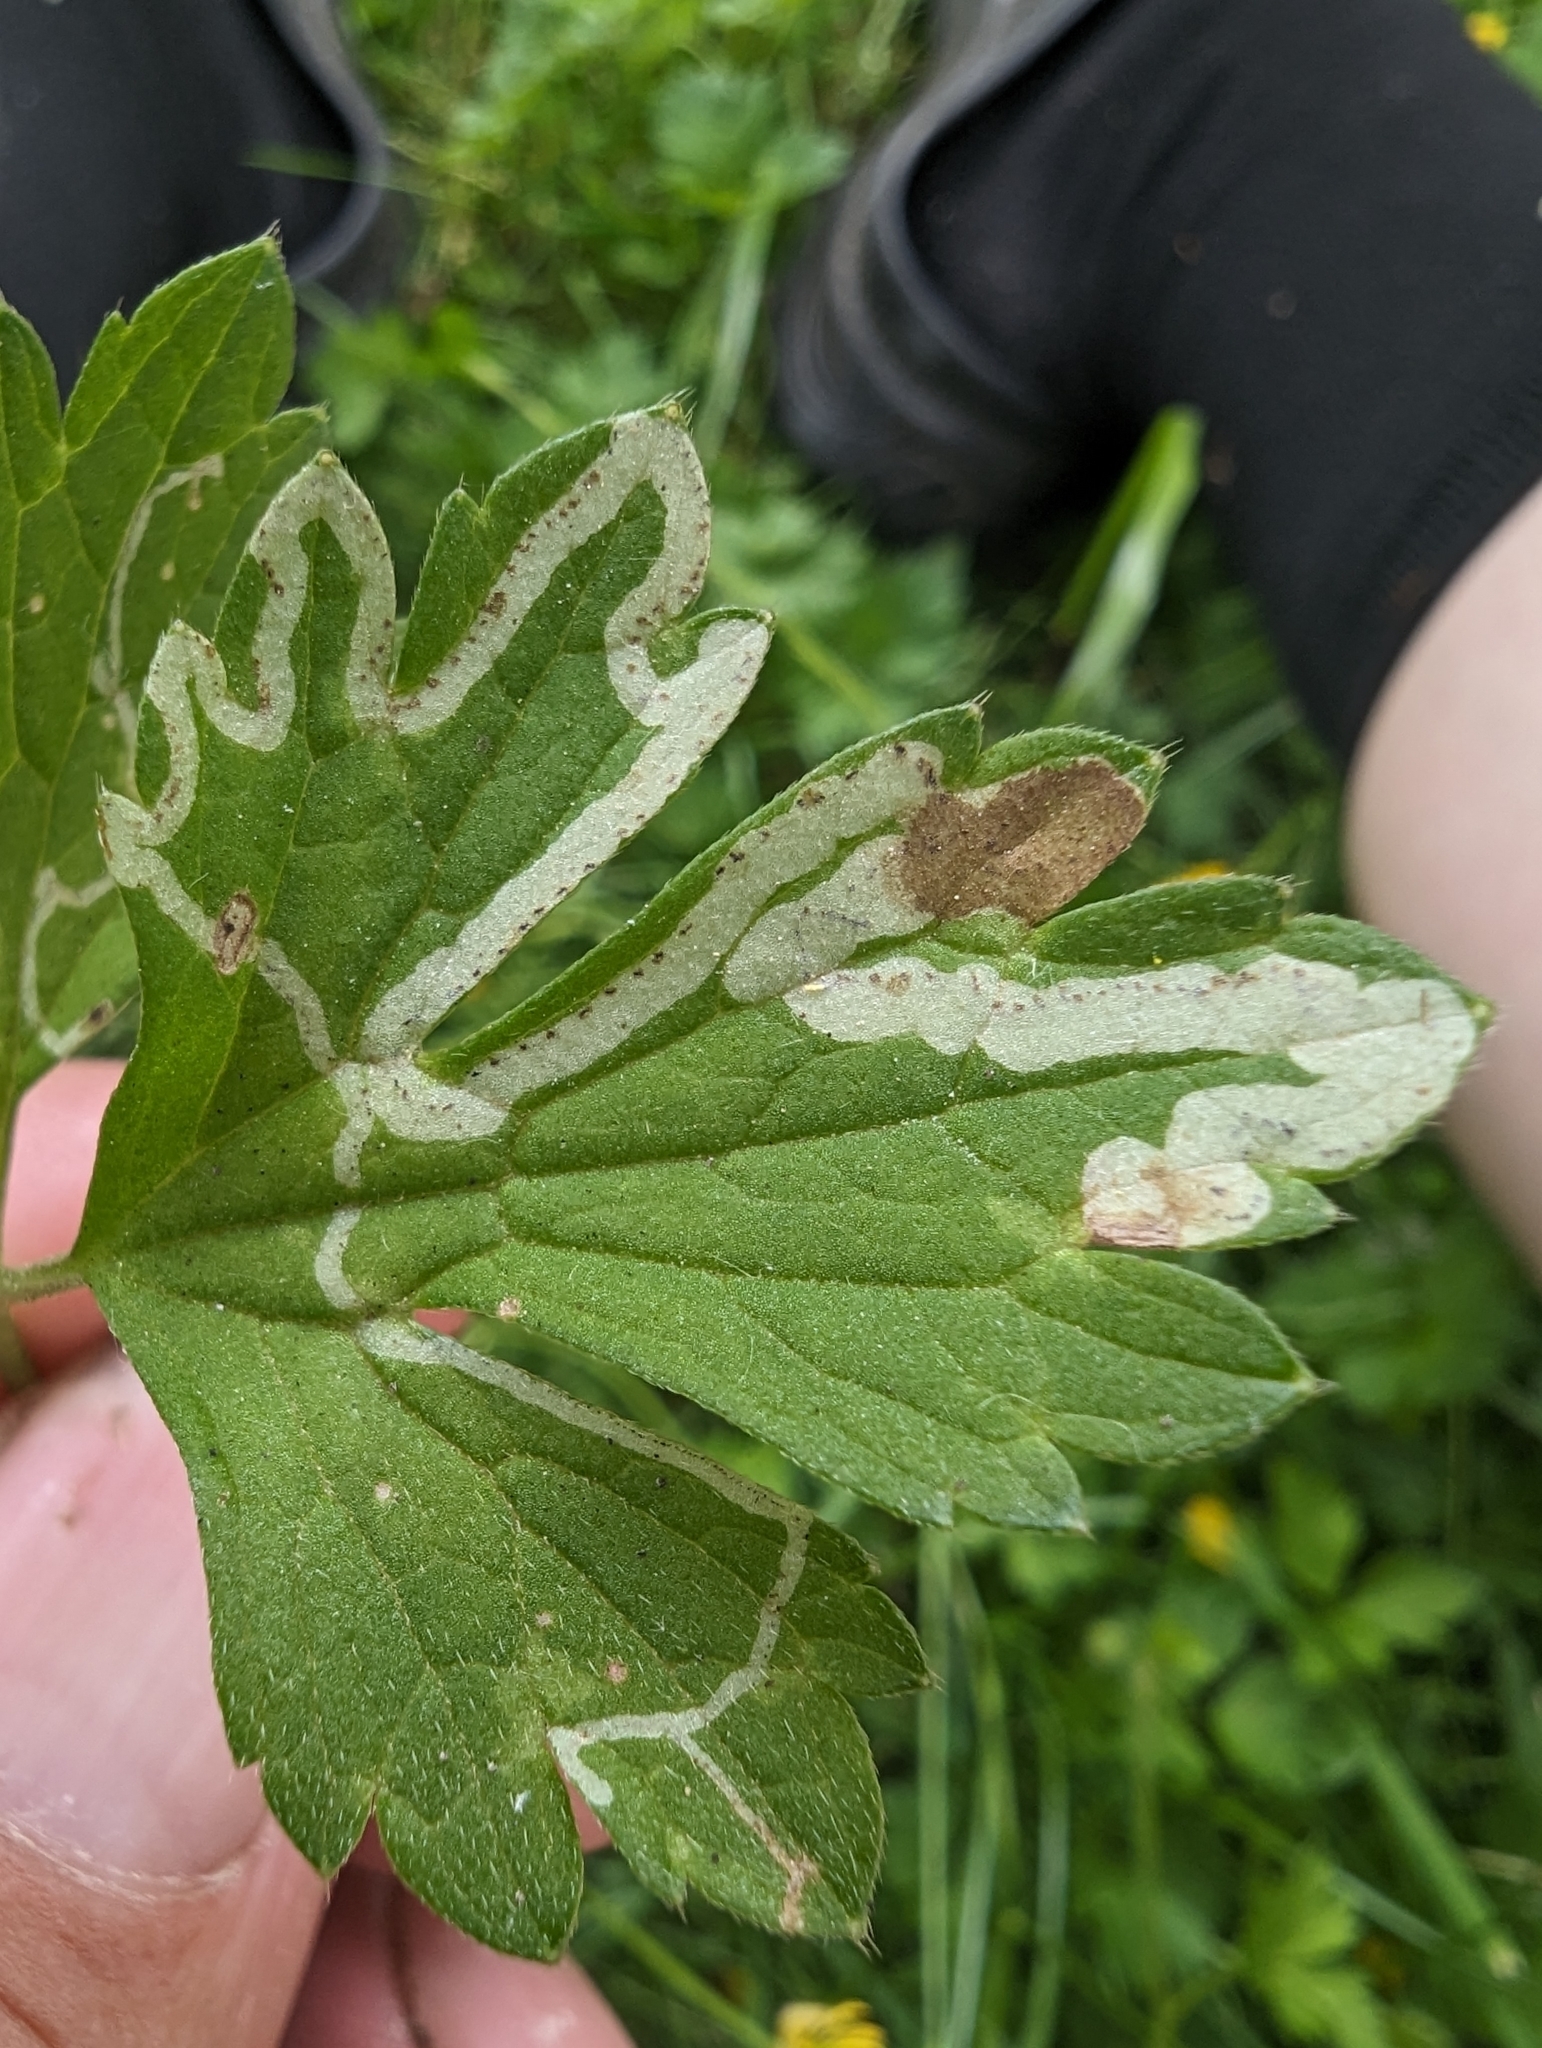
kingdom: Animalia
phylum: Arthropoda
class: Insecta
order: Diptera
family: Agromyzidae
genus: Phytomyza
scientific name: Phytomyza ranunculi
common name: Leaf-miner fly
